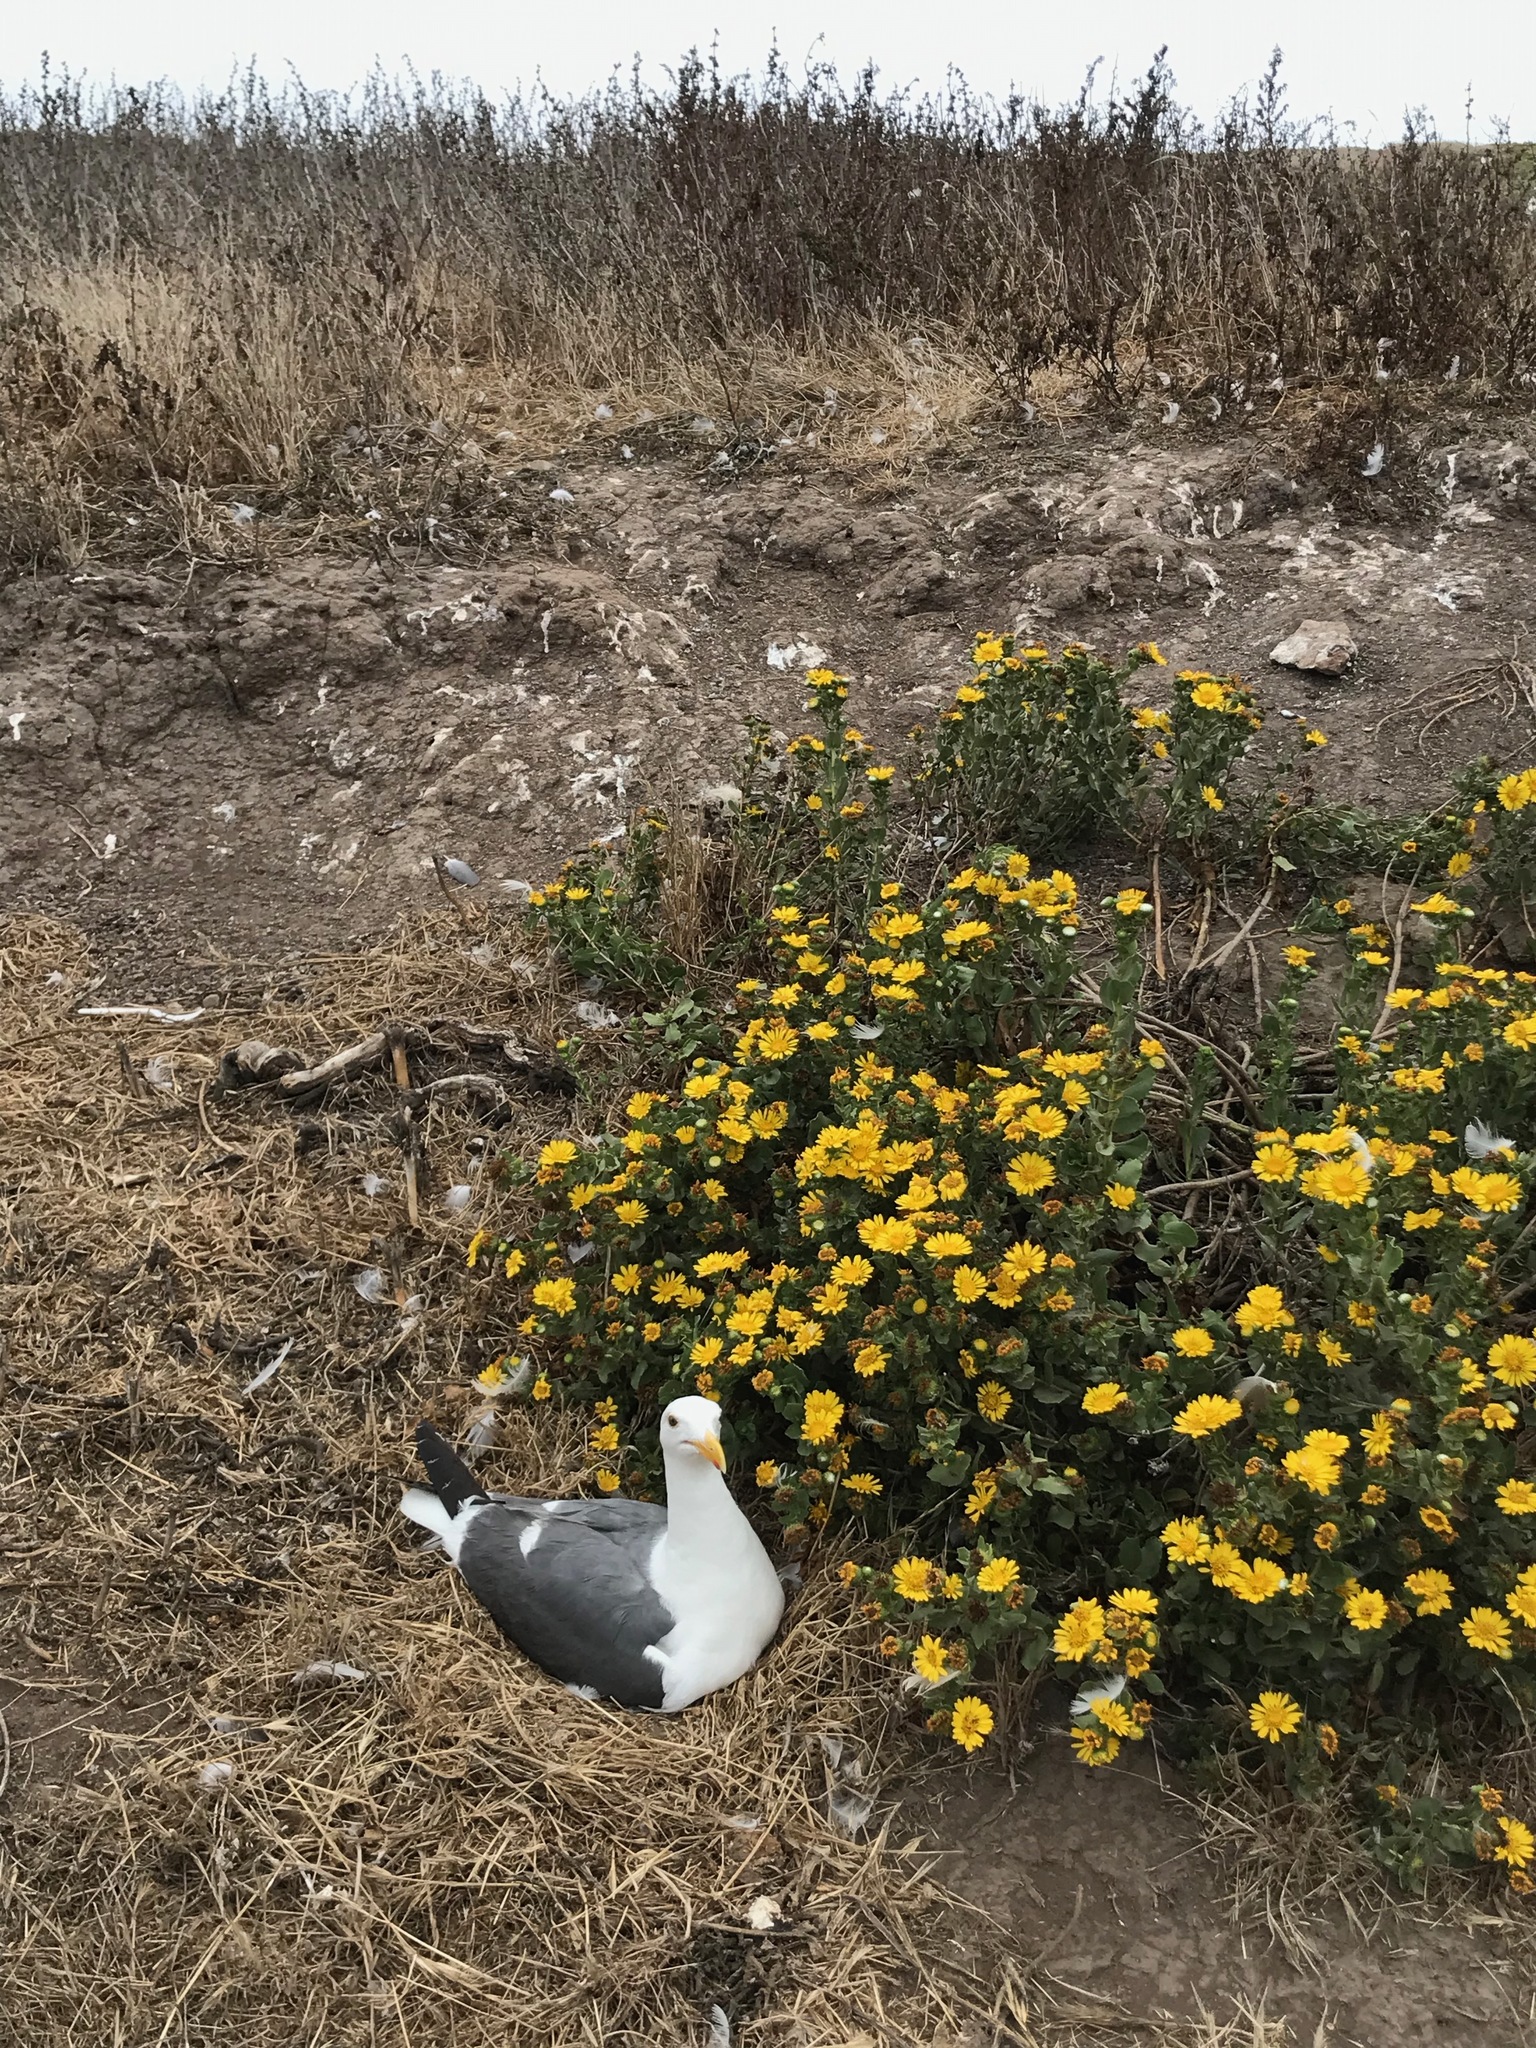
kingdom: Animalia
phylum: Chordata
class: Aves
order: Charadriiformes
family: Laridae
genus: Larus
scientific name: Larus occidentalis
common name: Western gull
